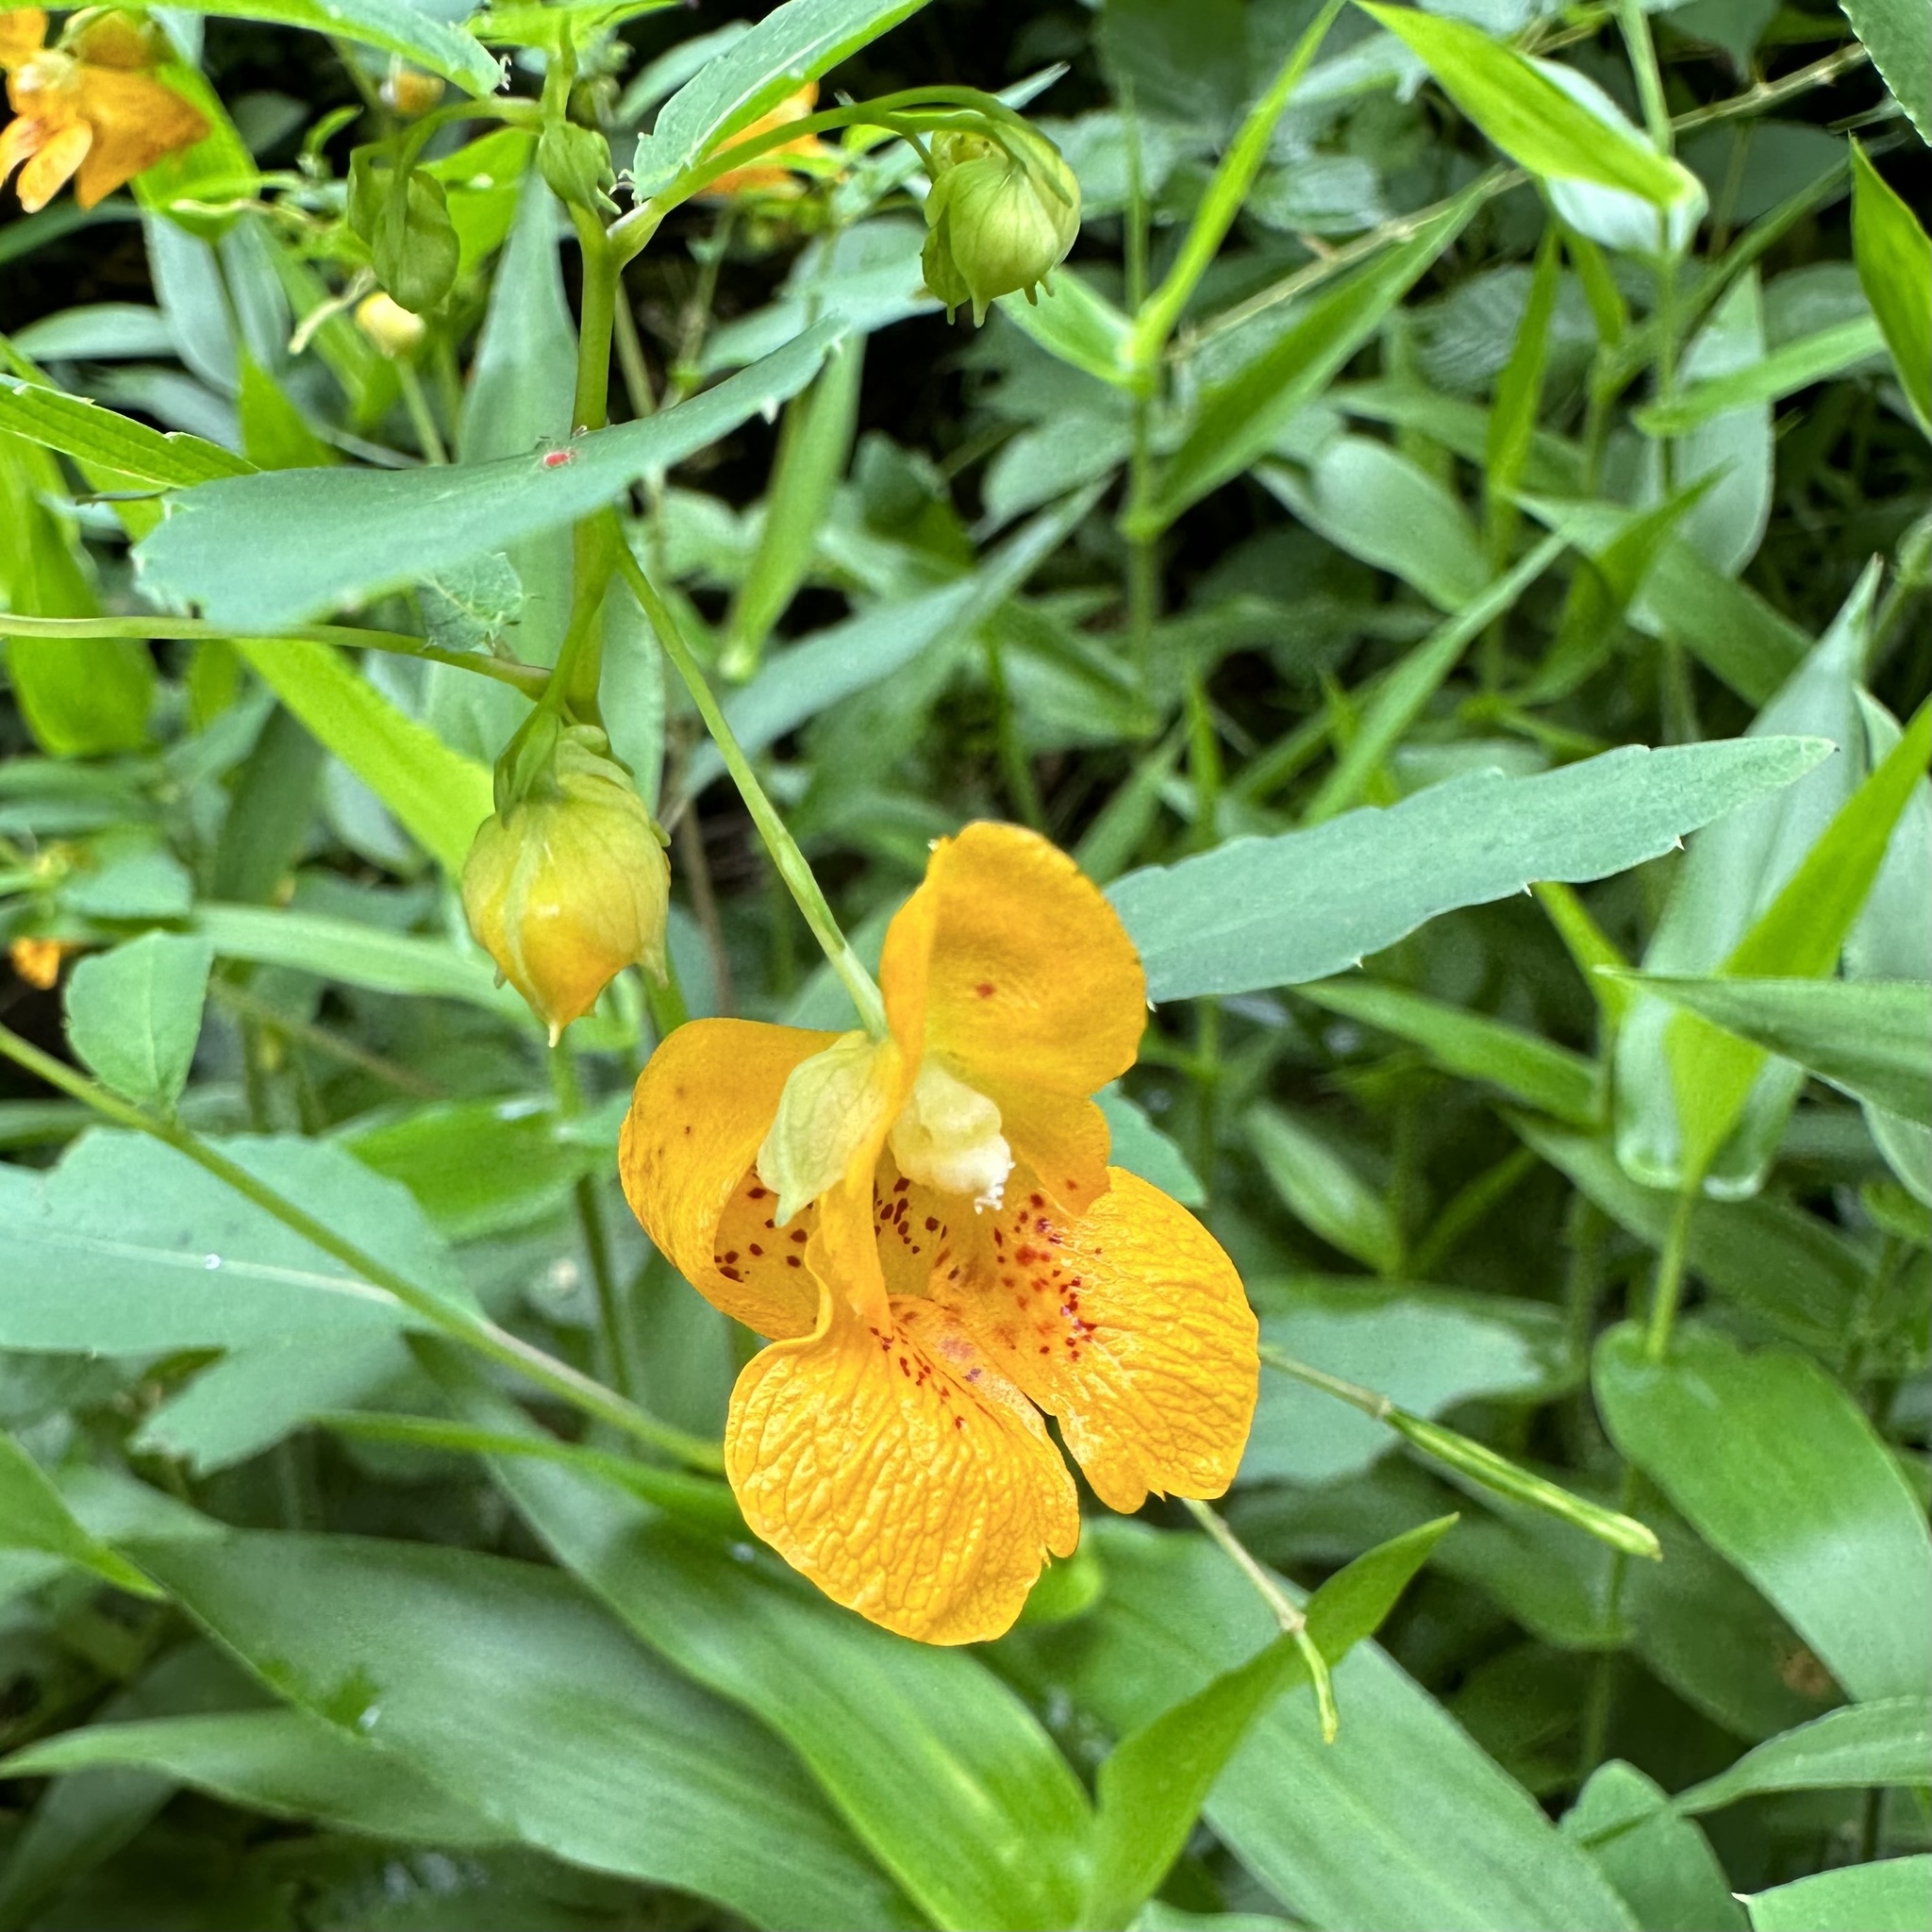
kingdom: Plantae
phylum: Tracheophyta
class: Magnoliopsida
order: Ericales
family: Balsaminaceae
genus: Impatiens
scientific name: Impatiens capensis
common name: Orange balsam
